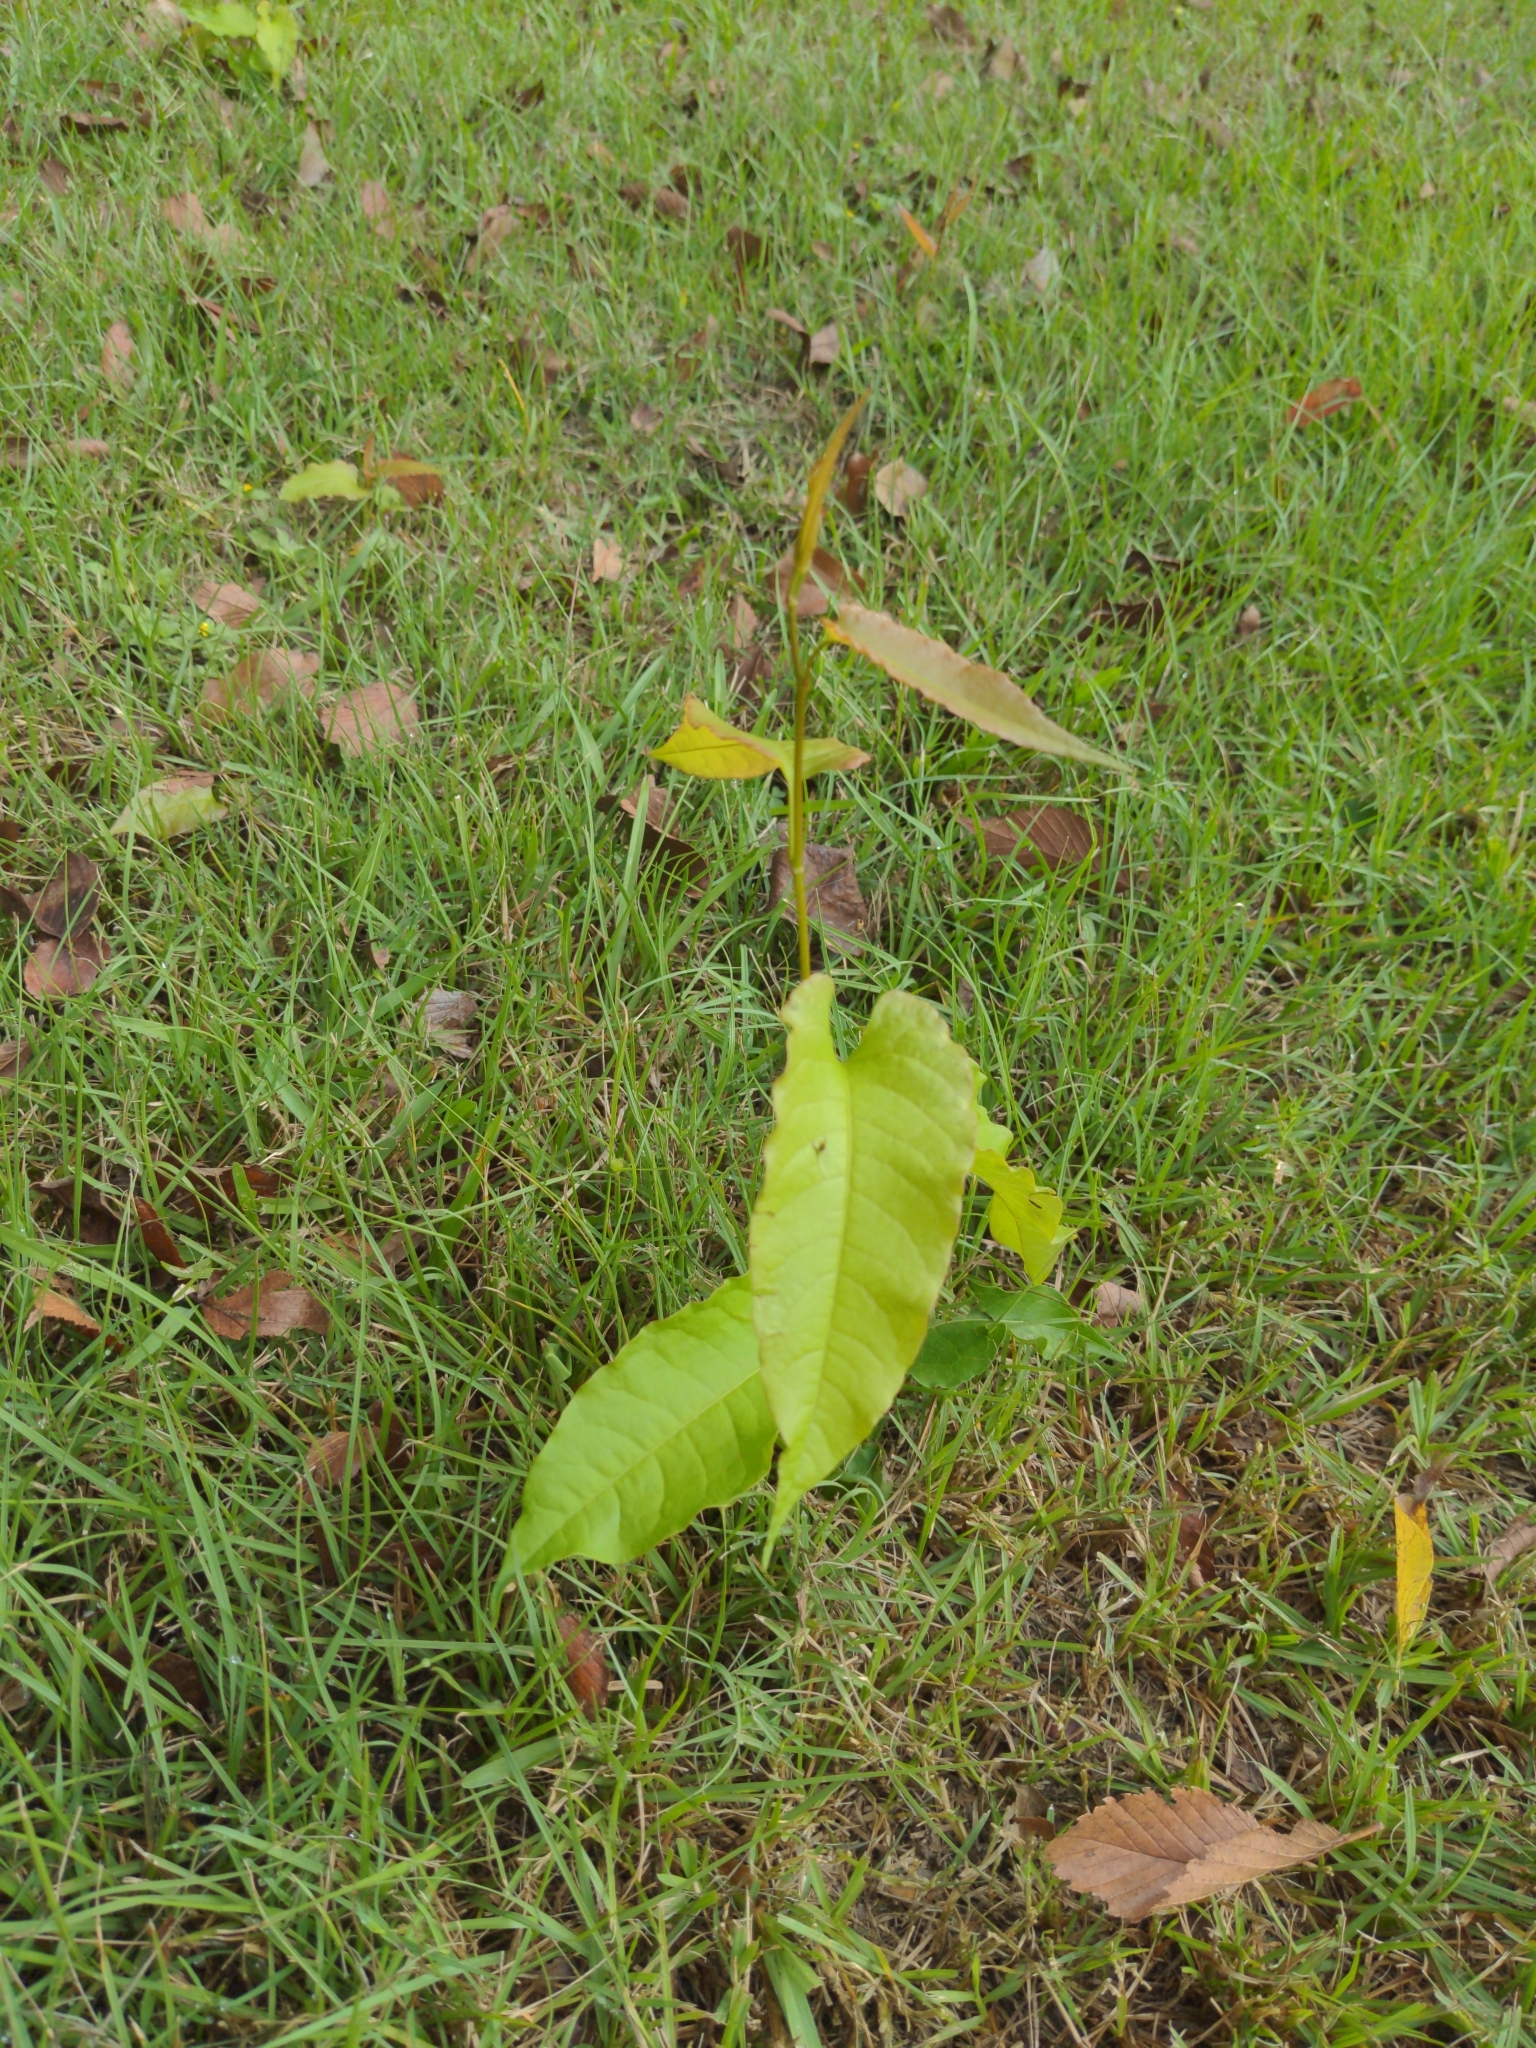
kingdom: Plantae
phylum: Tracheophyta
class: Magnoliopsida
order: Caryophyllales
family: Polygonaceae
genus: Brunnichia
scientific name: Brunnichia ovata
